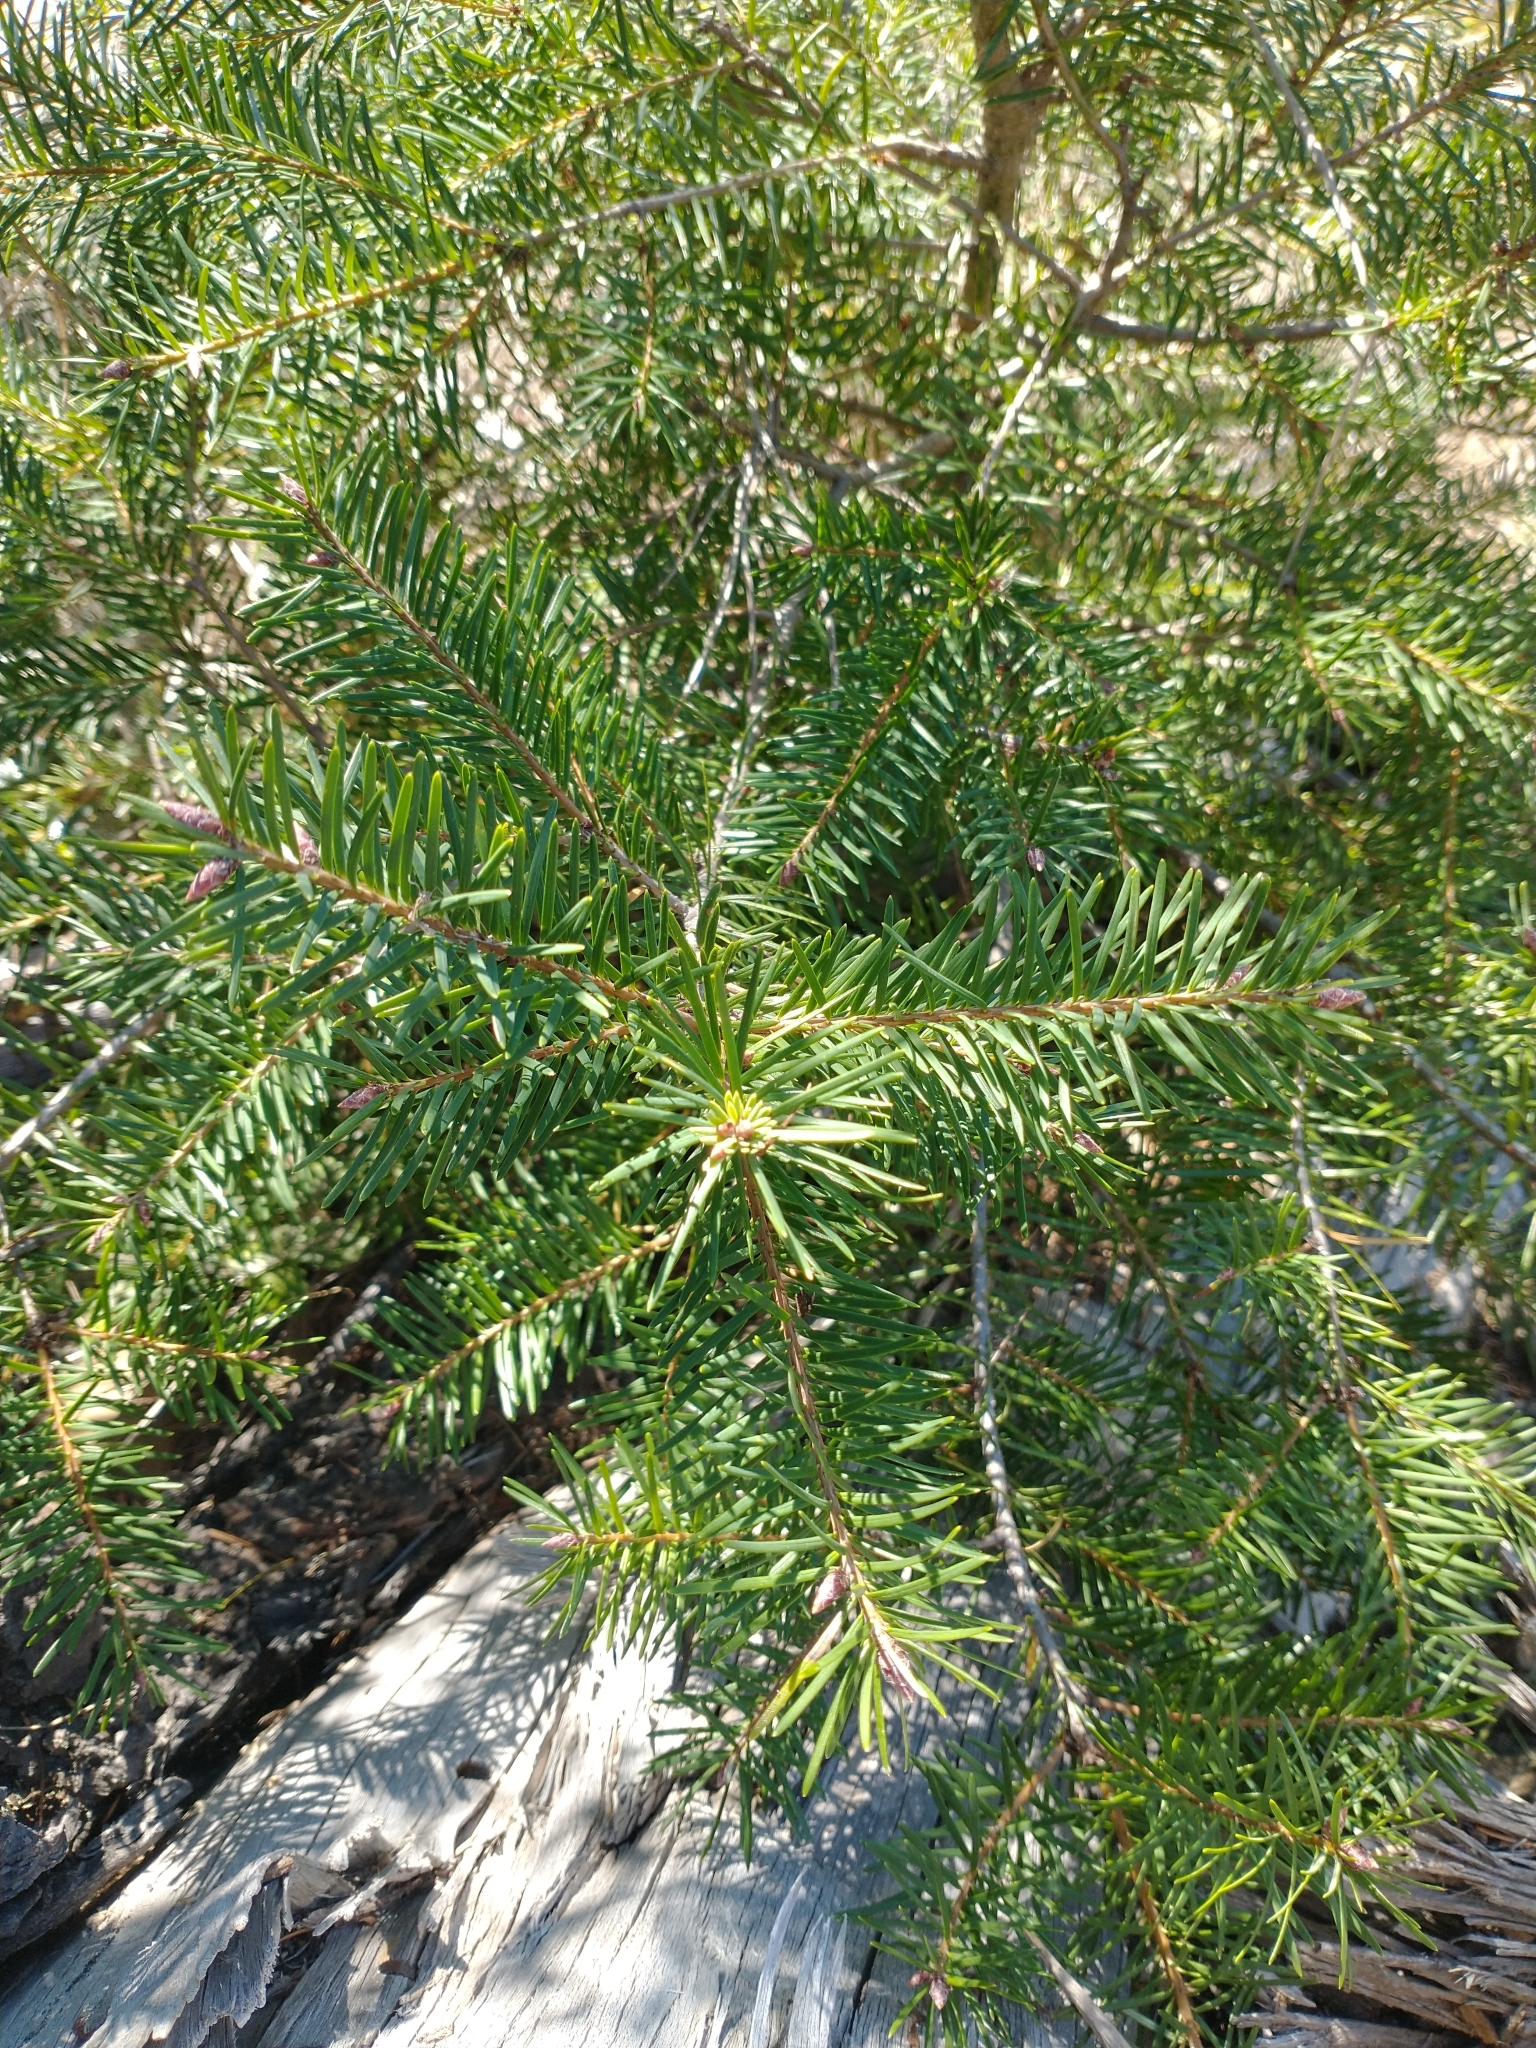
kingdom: Plantae
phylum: Tracheophyta
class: Pinopsida
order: Pinales
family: Pinaceae
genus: Pseudotsuga
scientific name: Pseudotsuga menziesii
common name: Douglas fir
